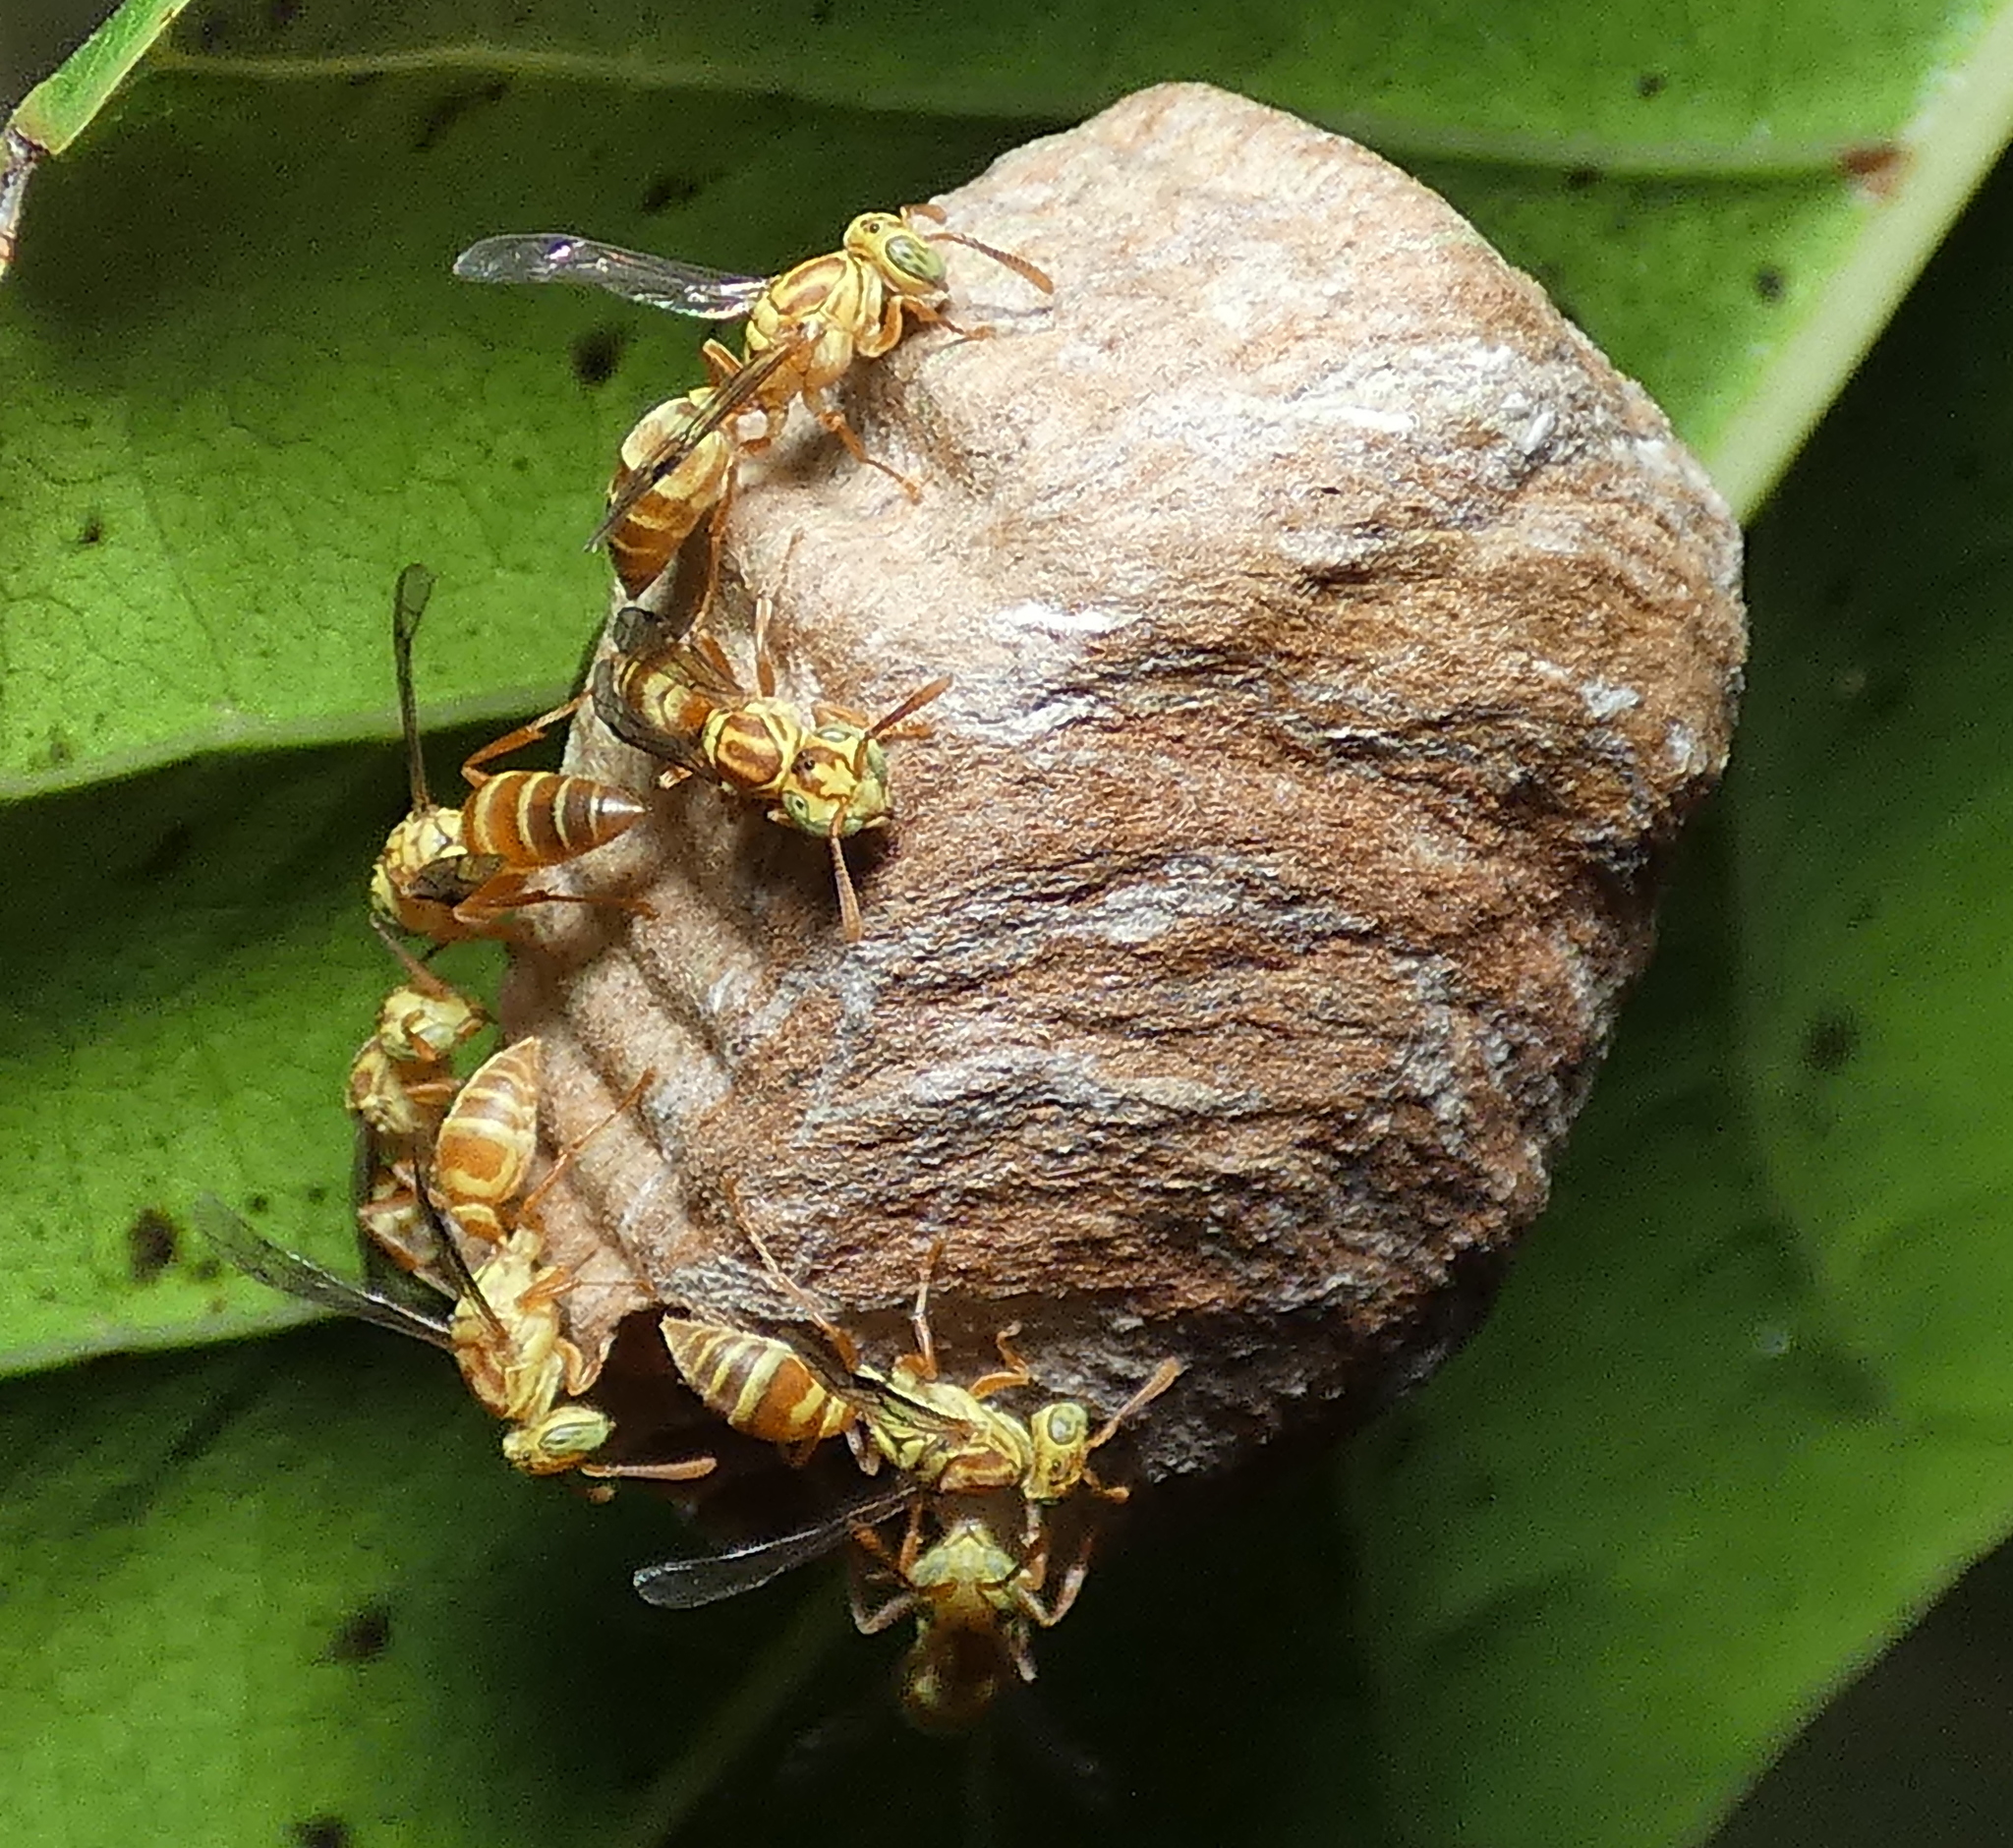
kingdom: Animalia
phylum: Arthropoda
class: Insecta
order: Hymenoptera
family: Vespidae
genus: Protopolybia
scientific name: Protopolybia potiguara
